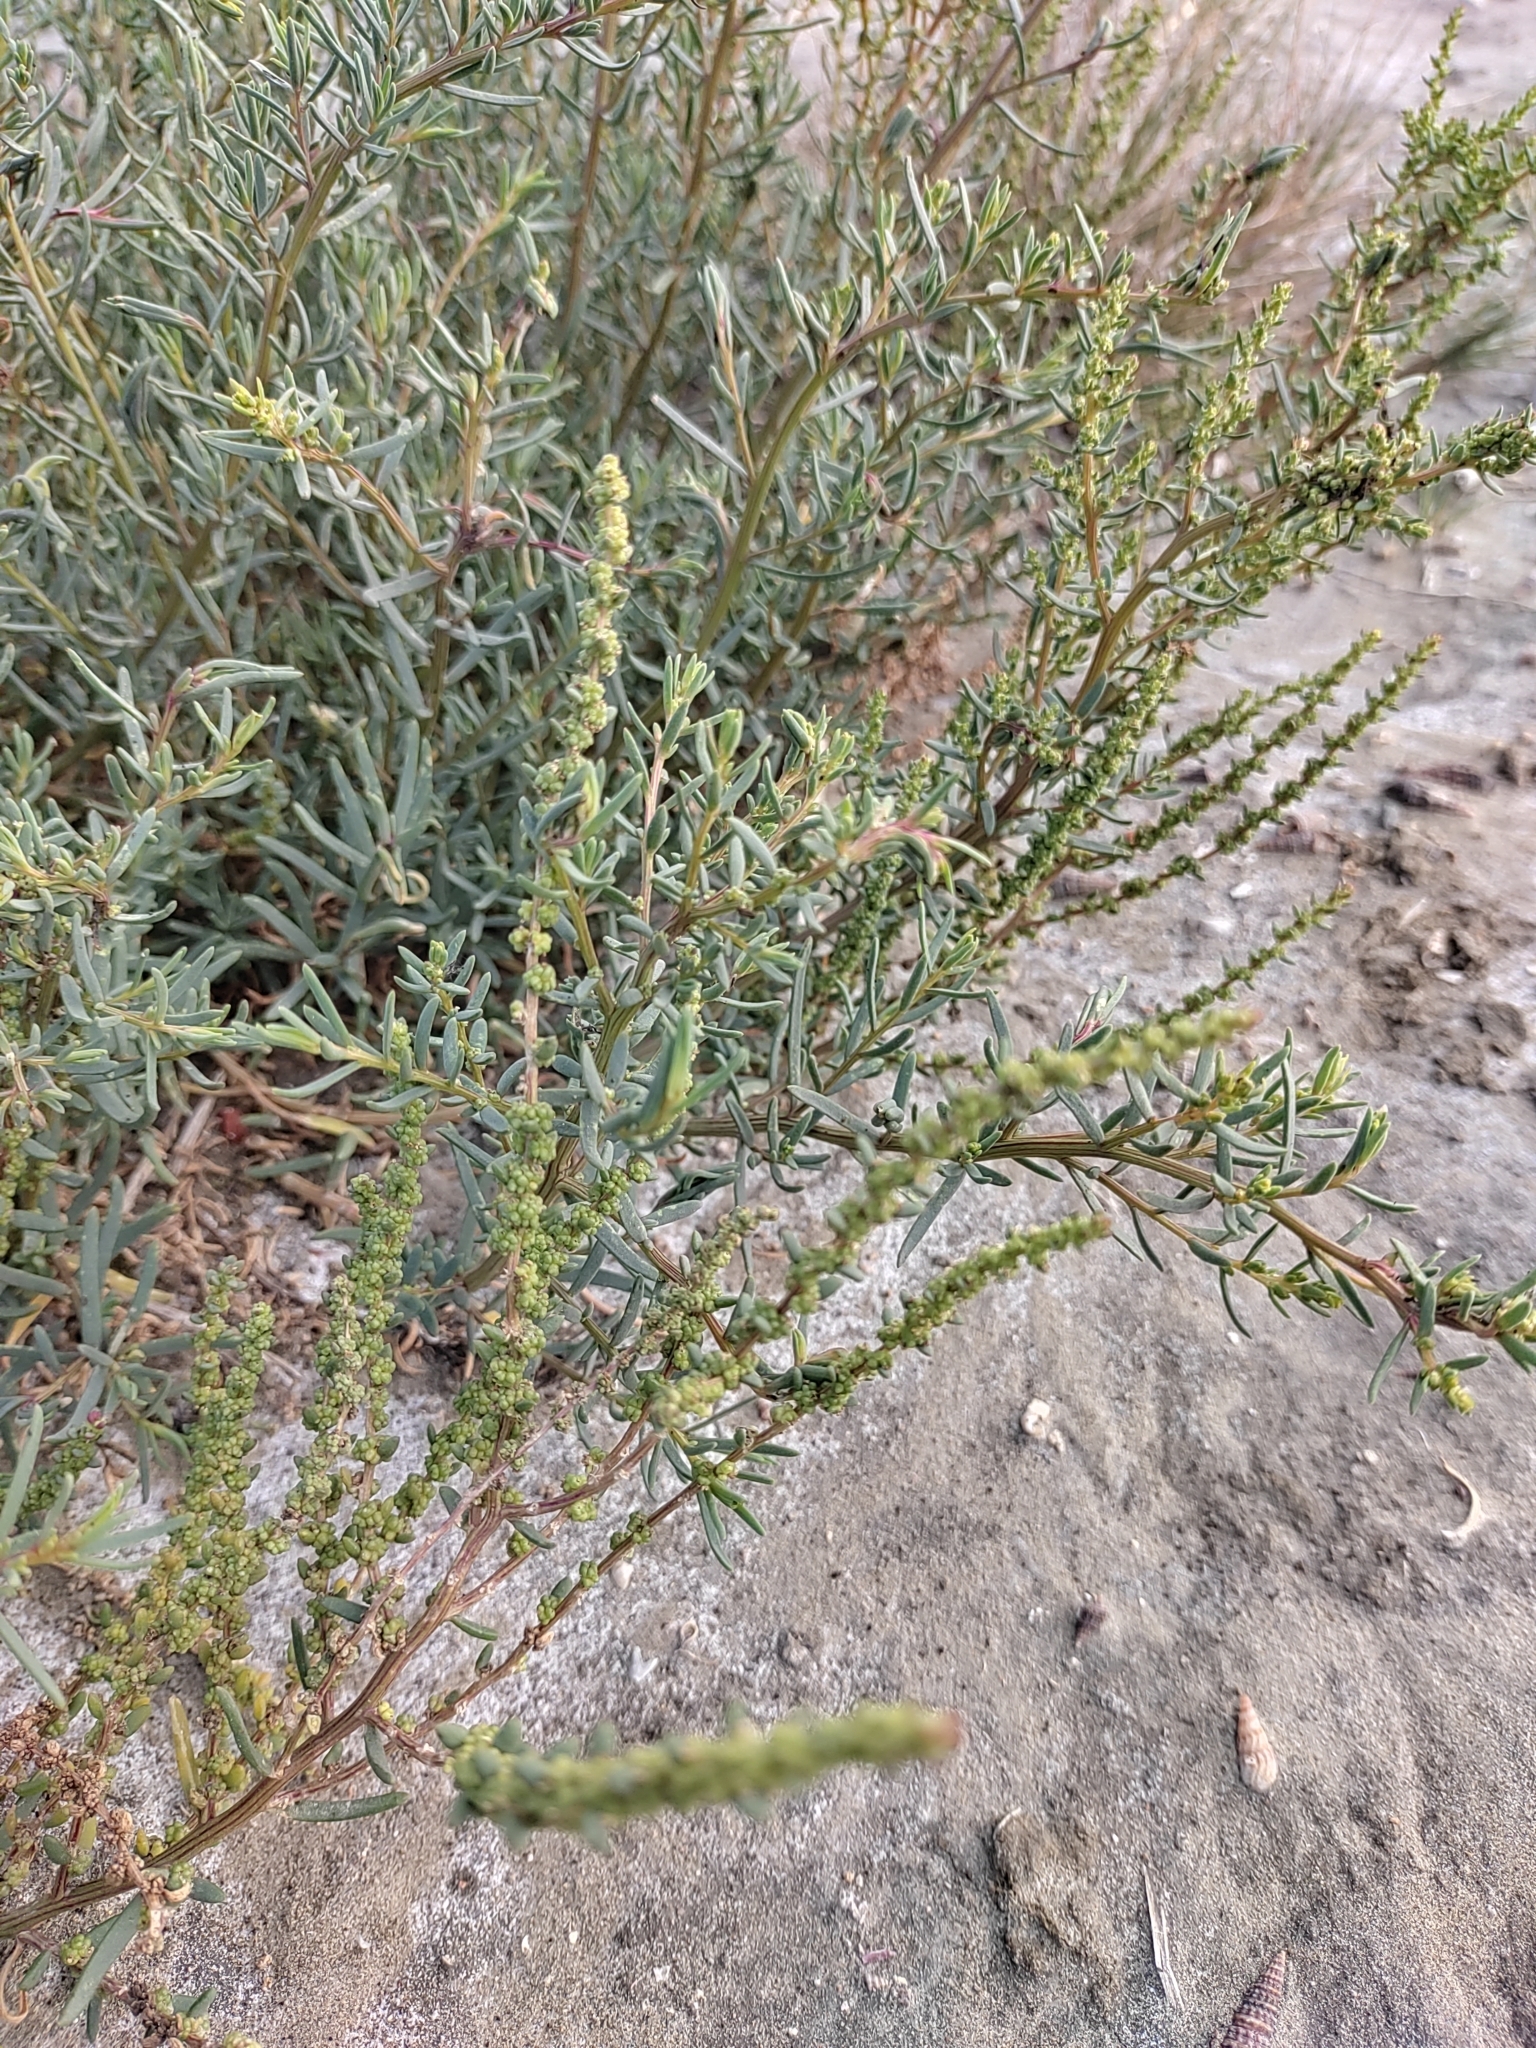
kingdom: Plantae
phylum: Tracheophyta
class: Magnoliopsida
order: Caryophyllales
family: Amaranthaceae
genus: Suaeda
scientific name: Suaeda maritima
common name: Annual sea-blite
